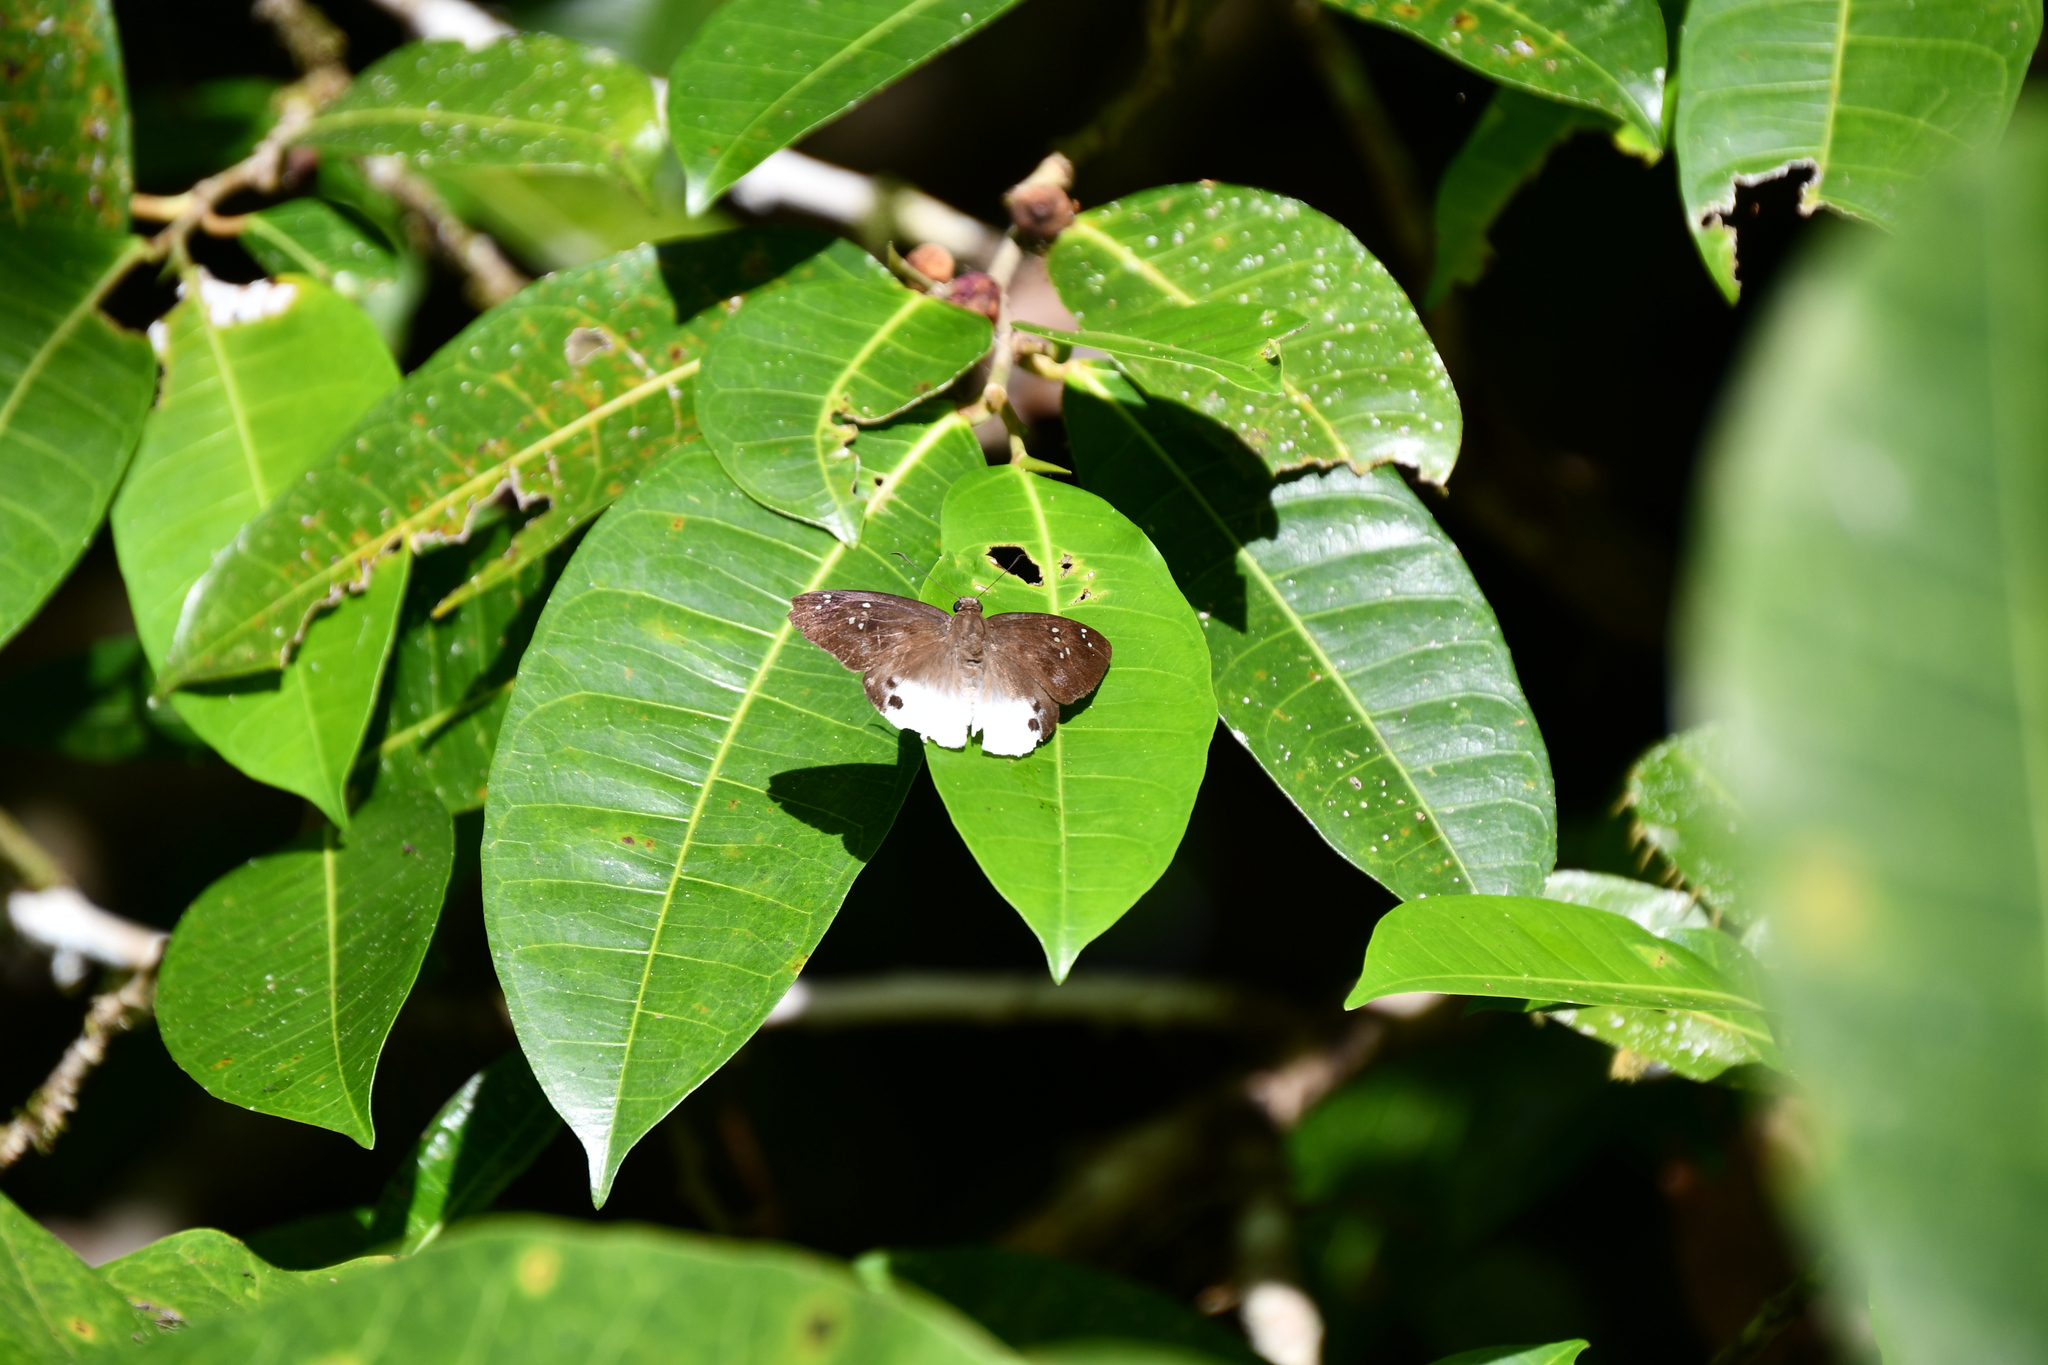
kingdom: Animalia
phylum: Arthropoda
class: Insecta
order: Lepidoptera
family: Hesperiidae
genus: Tagiades
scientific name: Tagiades japetus
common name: Pied flat
